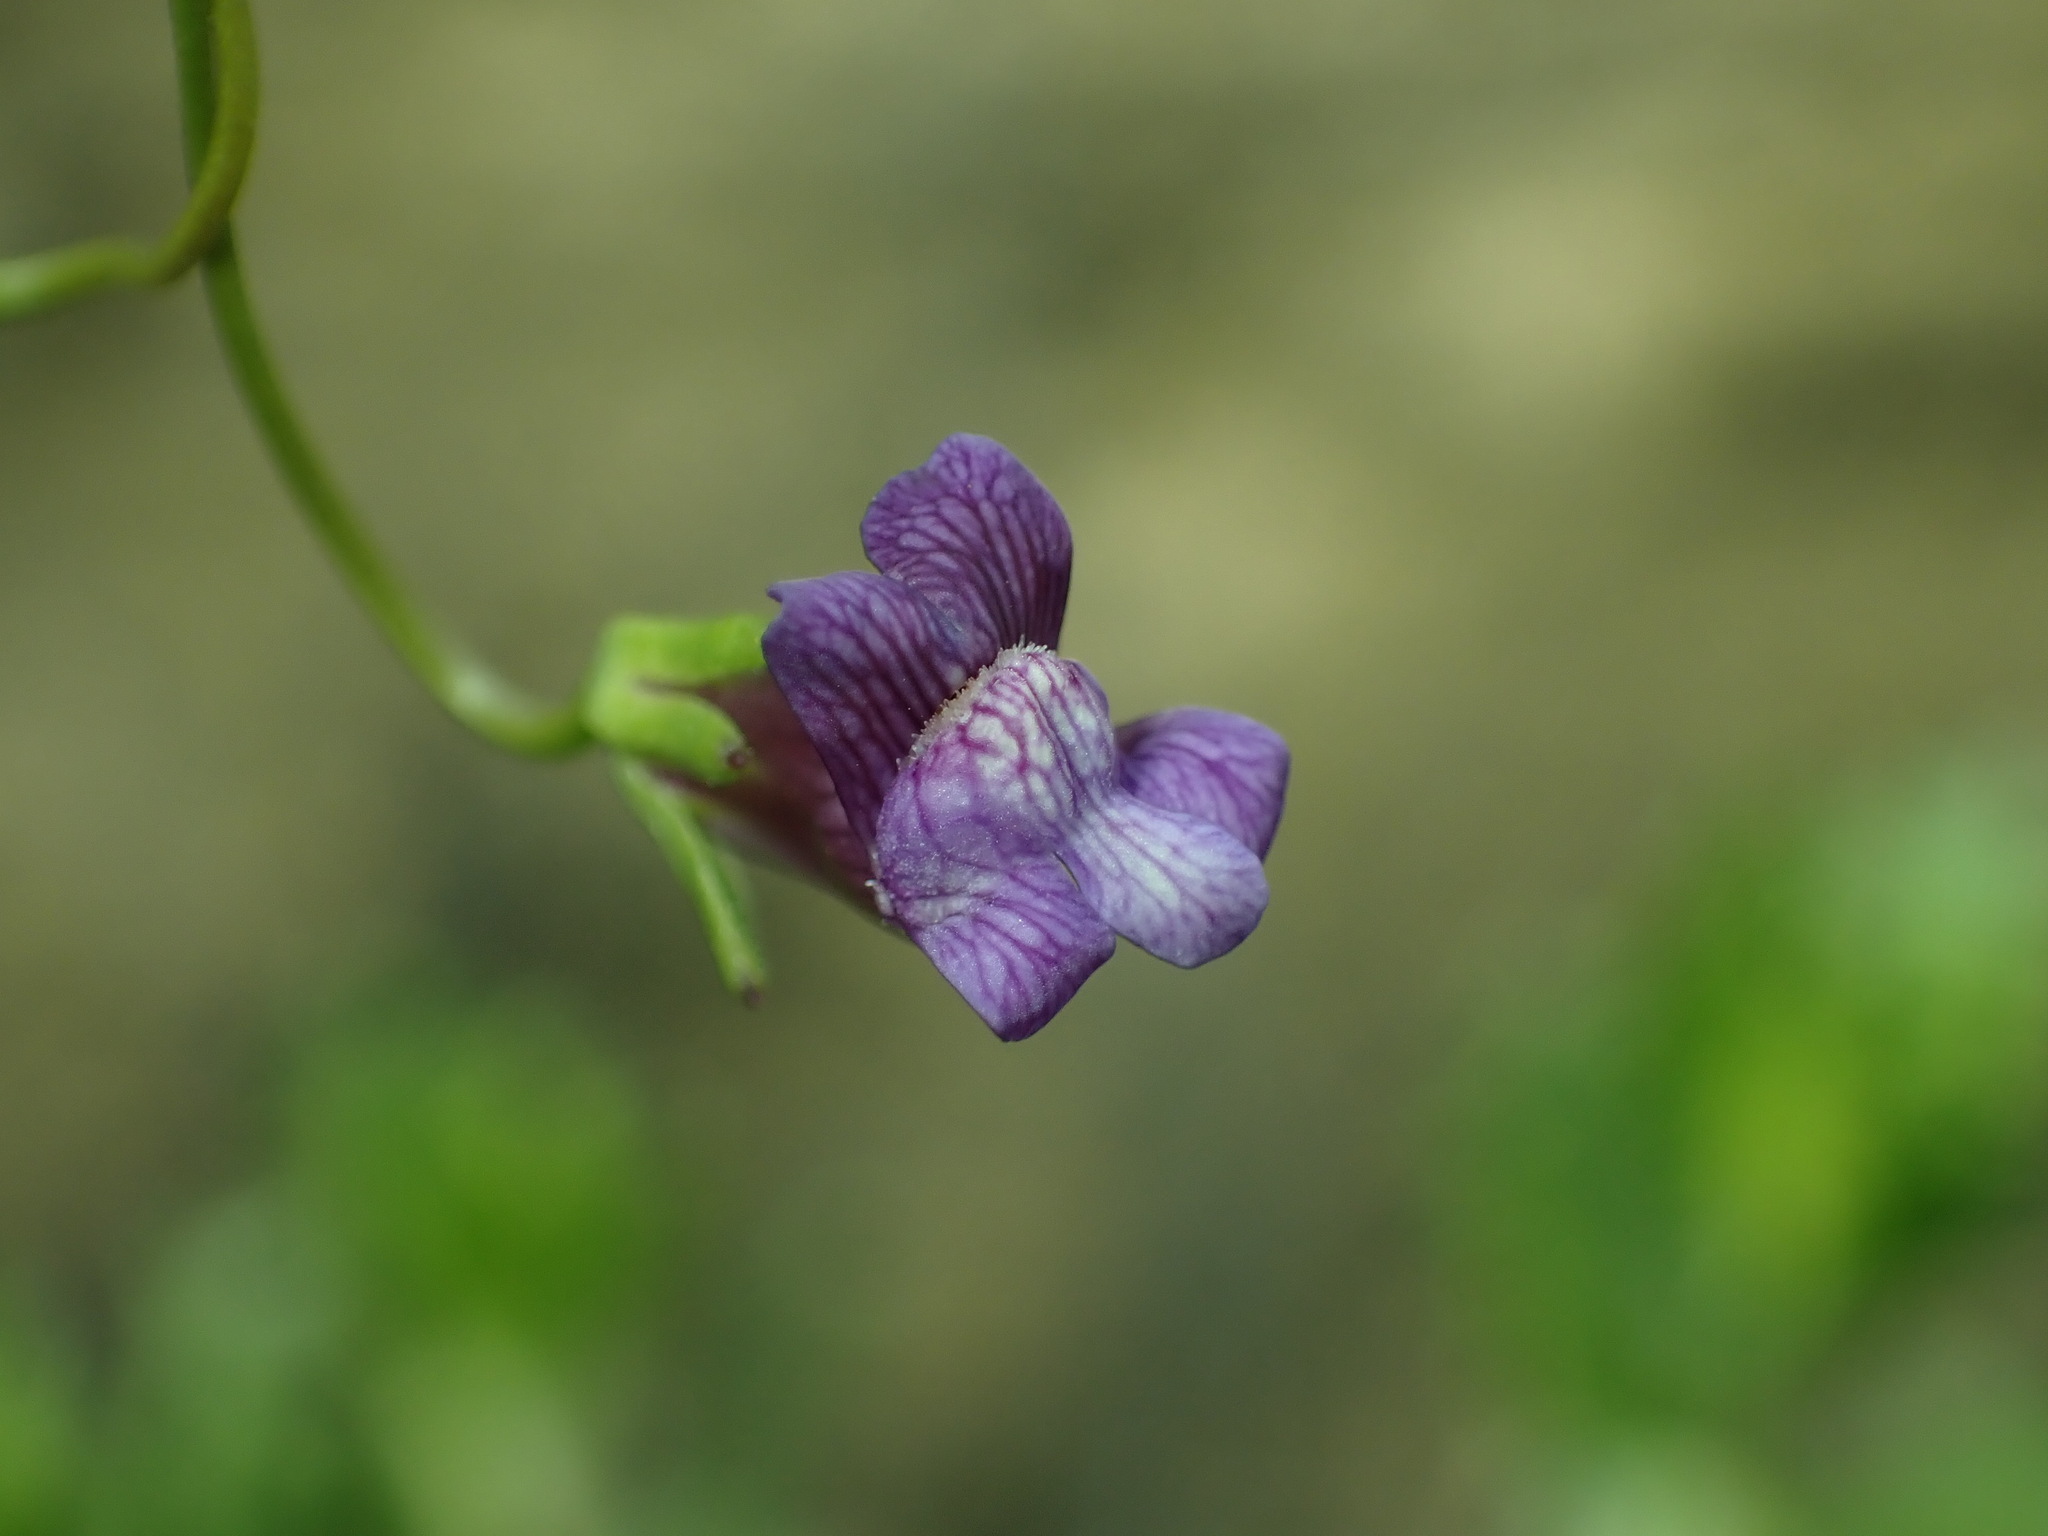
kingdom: Plantae
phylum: Tracheophyta
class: Magnoliopsida
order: Lamiales
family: Plantaginaceae
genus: Neogaerrhinum
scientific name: Neogaerrhinum strictum
